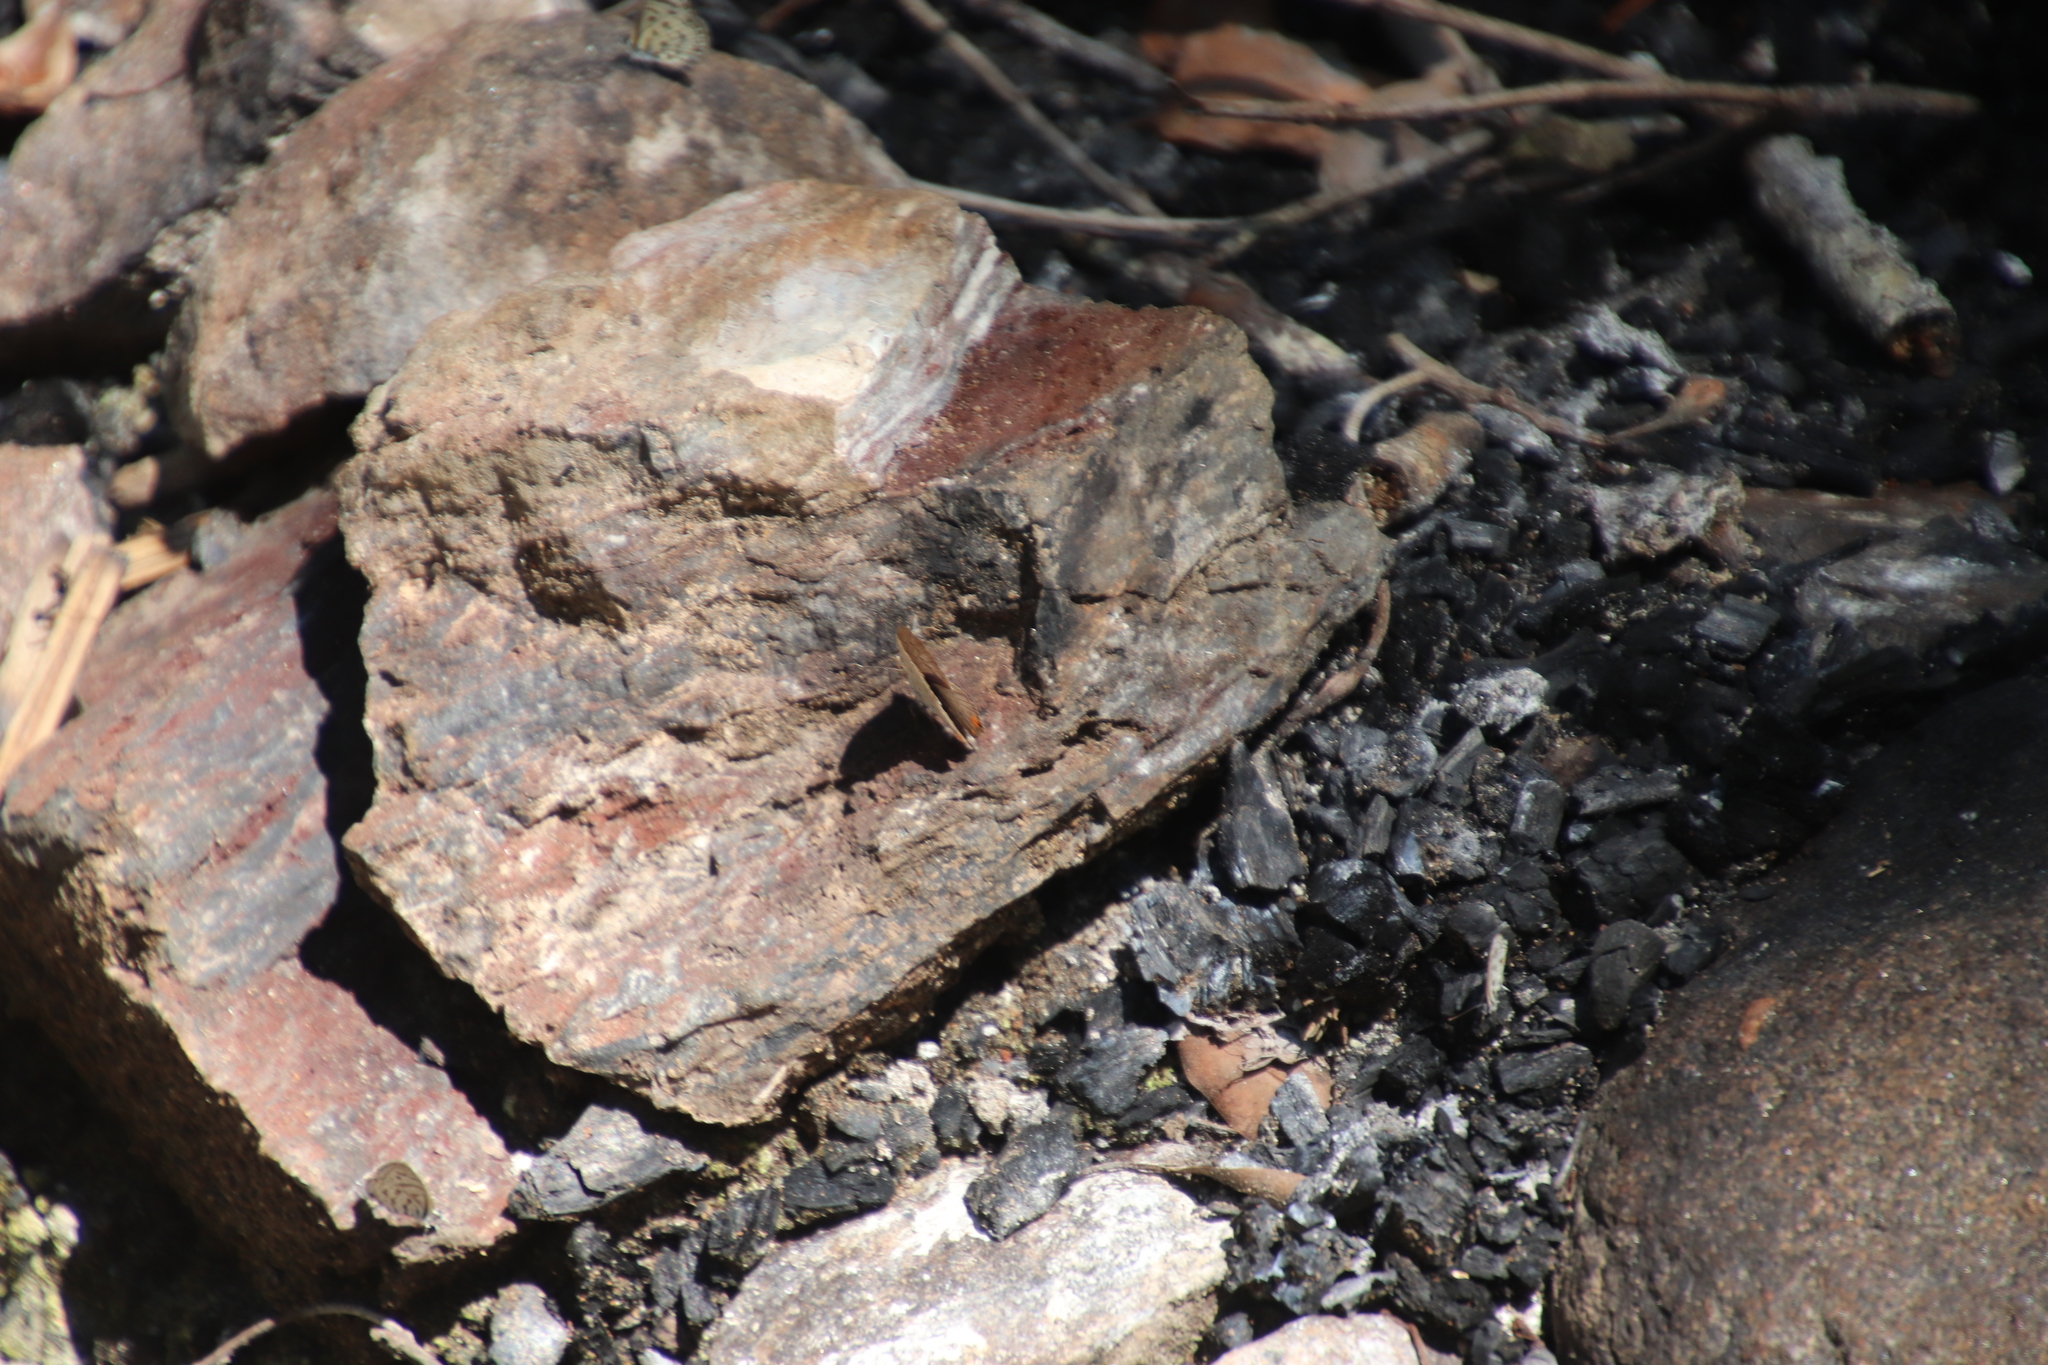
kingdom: Animalia
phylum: Arthropoda
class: Insecta
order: Lepidoptera
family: Lycaenidae
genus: Azanus
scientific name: Azanus mirza
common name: Mirza babul blue
